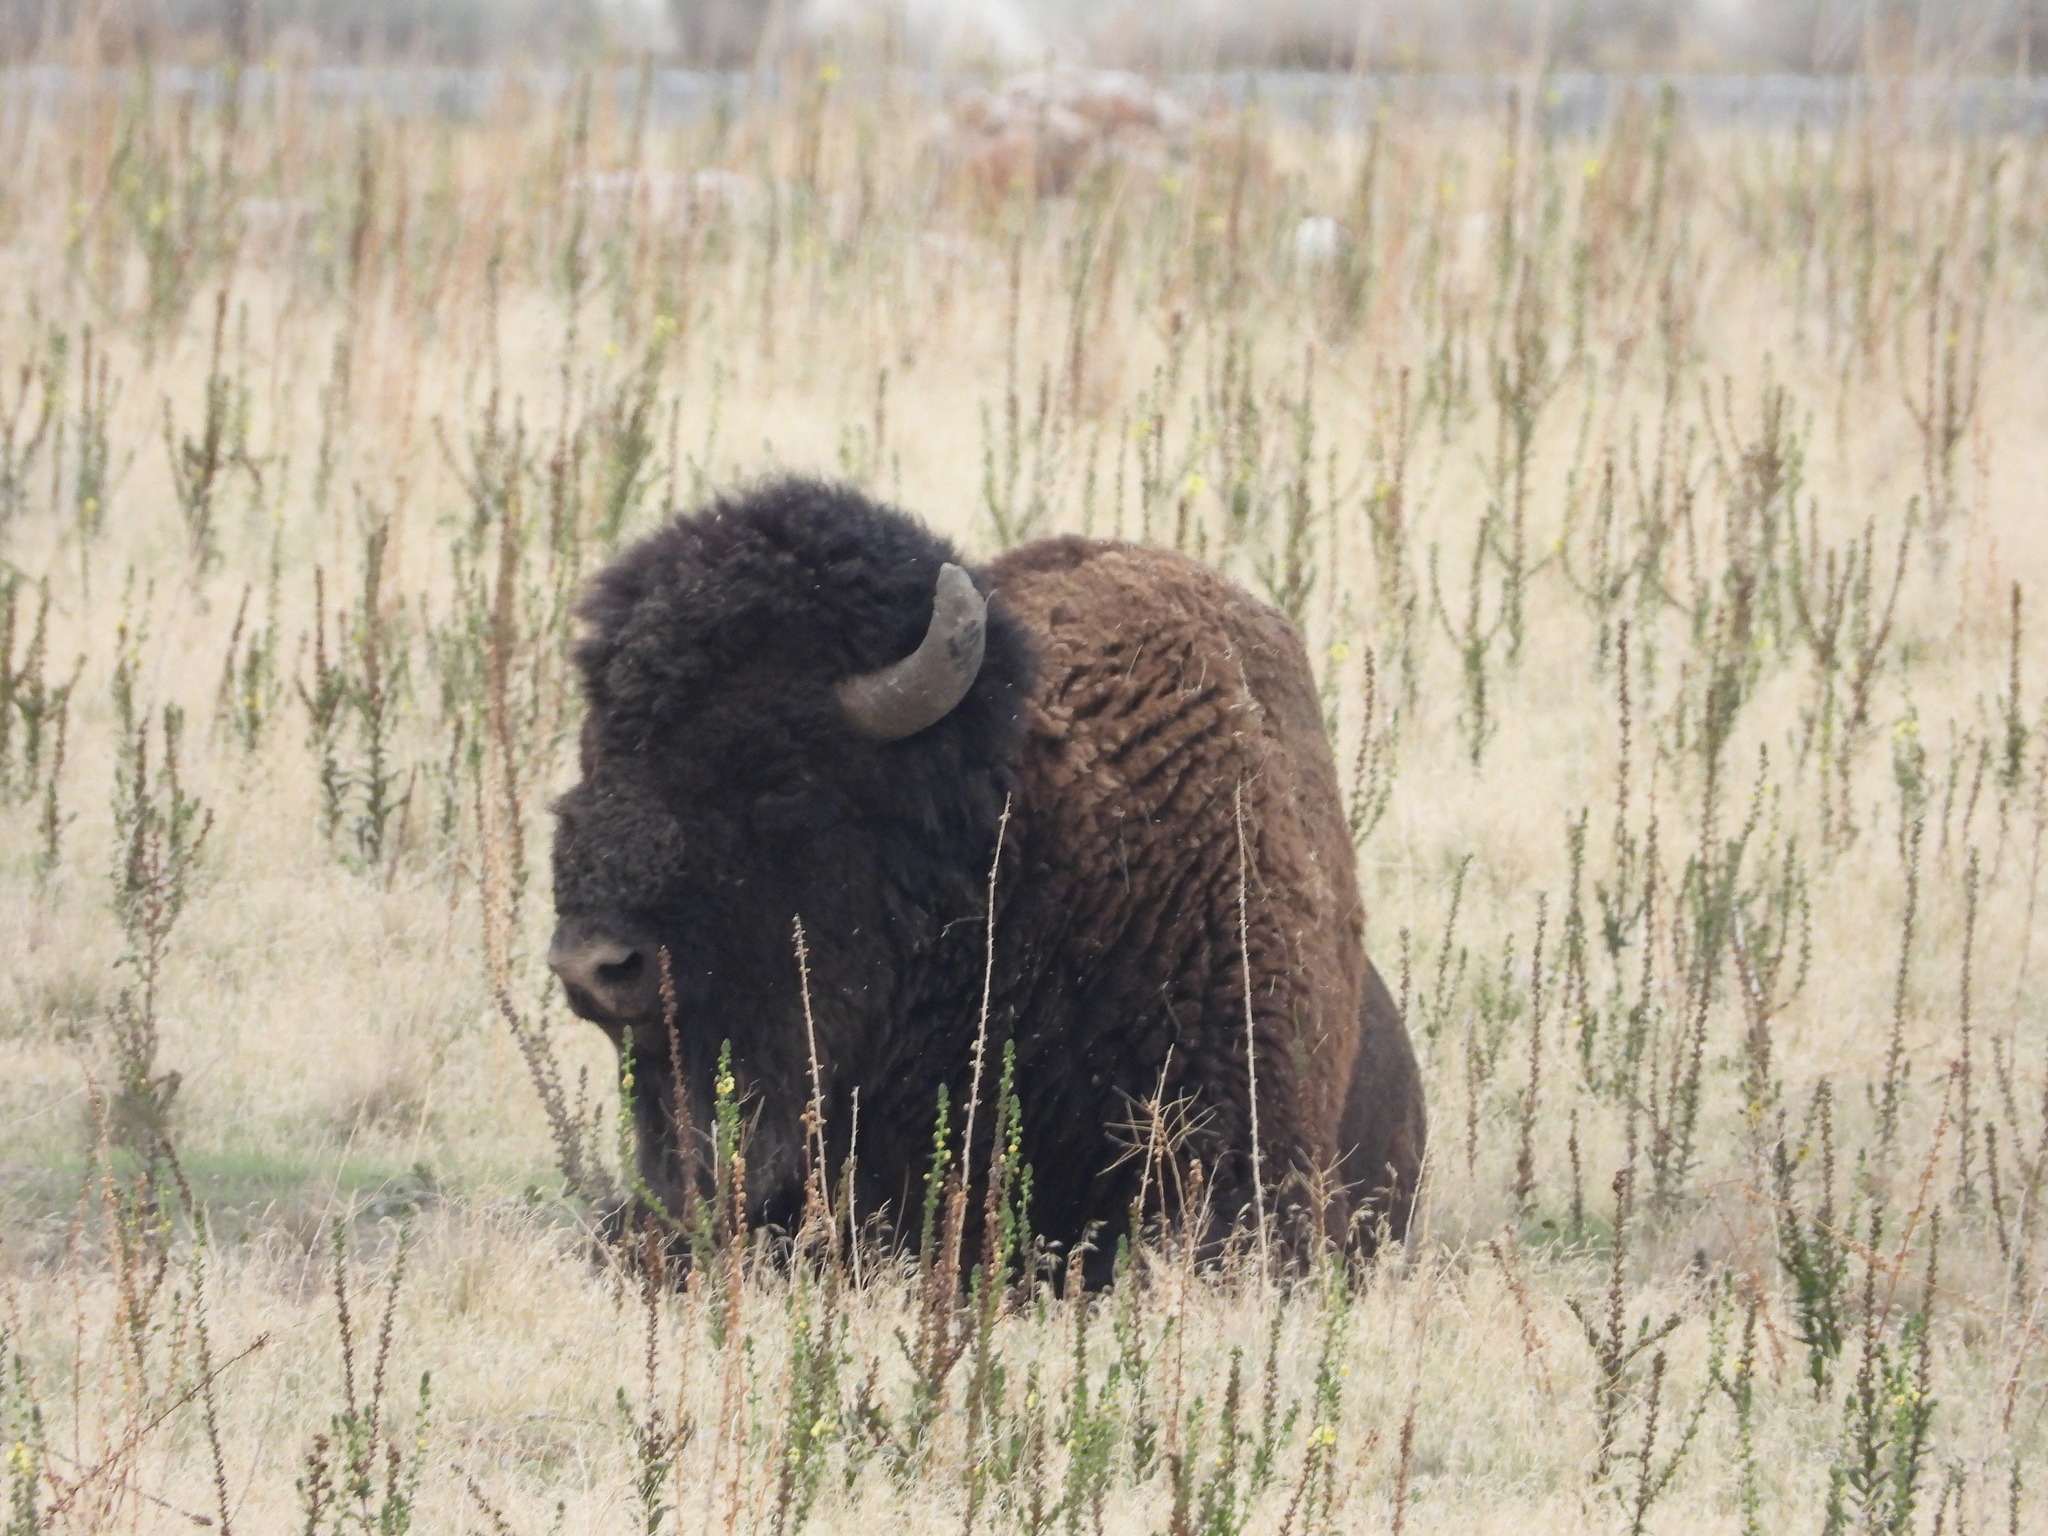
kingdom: Animalia
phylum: Chordata
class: Mammalia
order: Artiodactyla
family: Bovidae
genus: Bison
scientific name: Bison bison
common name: American bison
